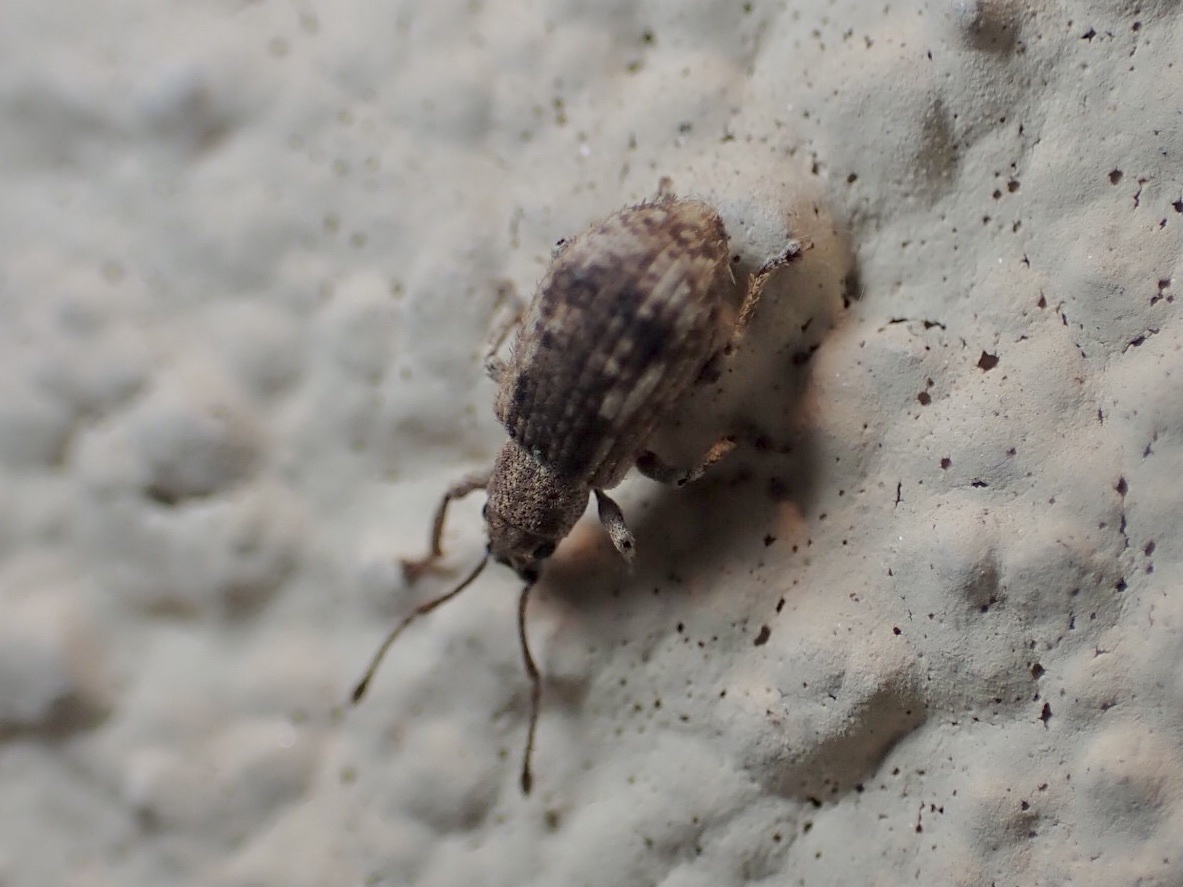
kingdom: Animalia
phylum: Arthropoda
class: Insecta
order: Coleoptera
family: Curculionidae
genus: Pseudoedophrys
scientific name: Pseudoedophrys hilleri
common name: Weevil
